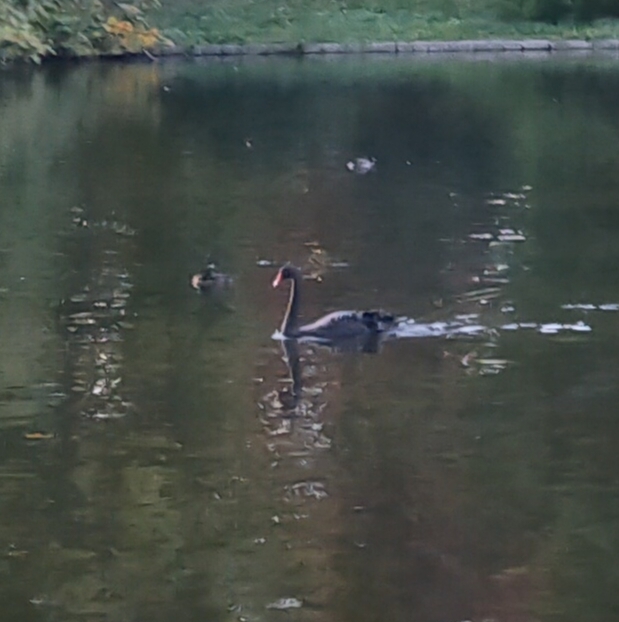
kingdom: Animalia
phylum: Chordata
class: Aves
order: Anseriformes
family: Anatidae
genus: Cygnus
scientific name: Cygnus atratus
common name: Black swan
